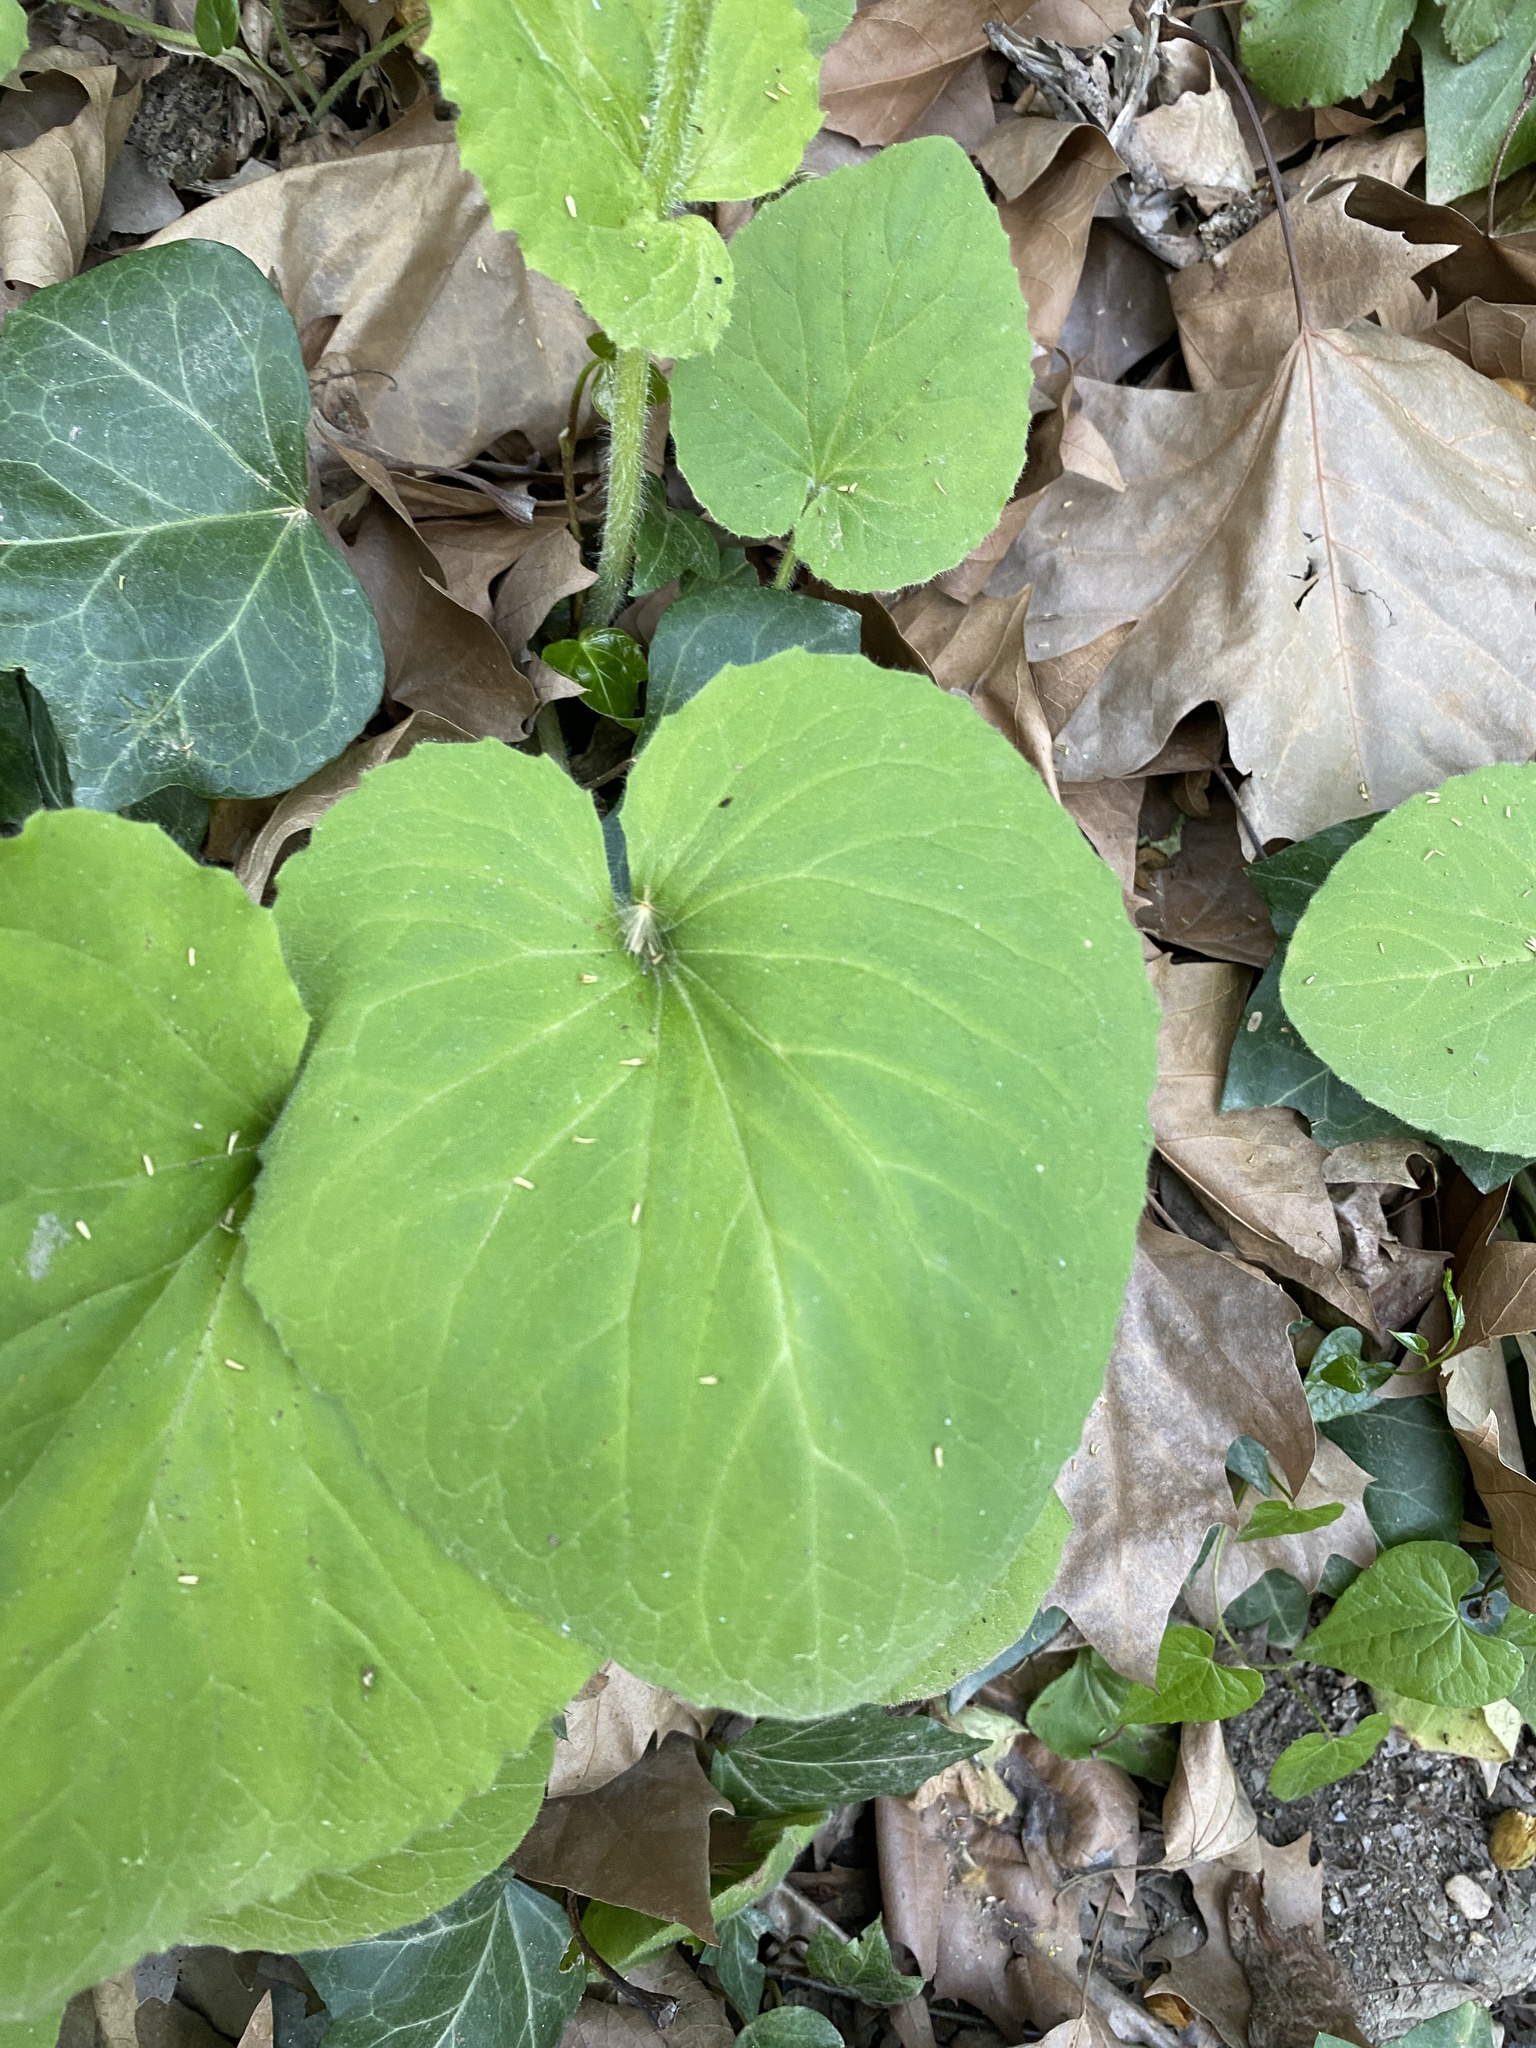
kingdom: Plantae
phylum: Tracheophyta
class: Magnoliopsida
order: Asterales
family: Asteraceae
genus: Doronicum
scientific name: Doronicum pardalianches
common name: Leopard's-bane
